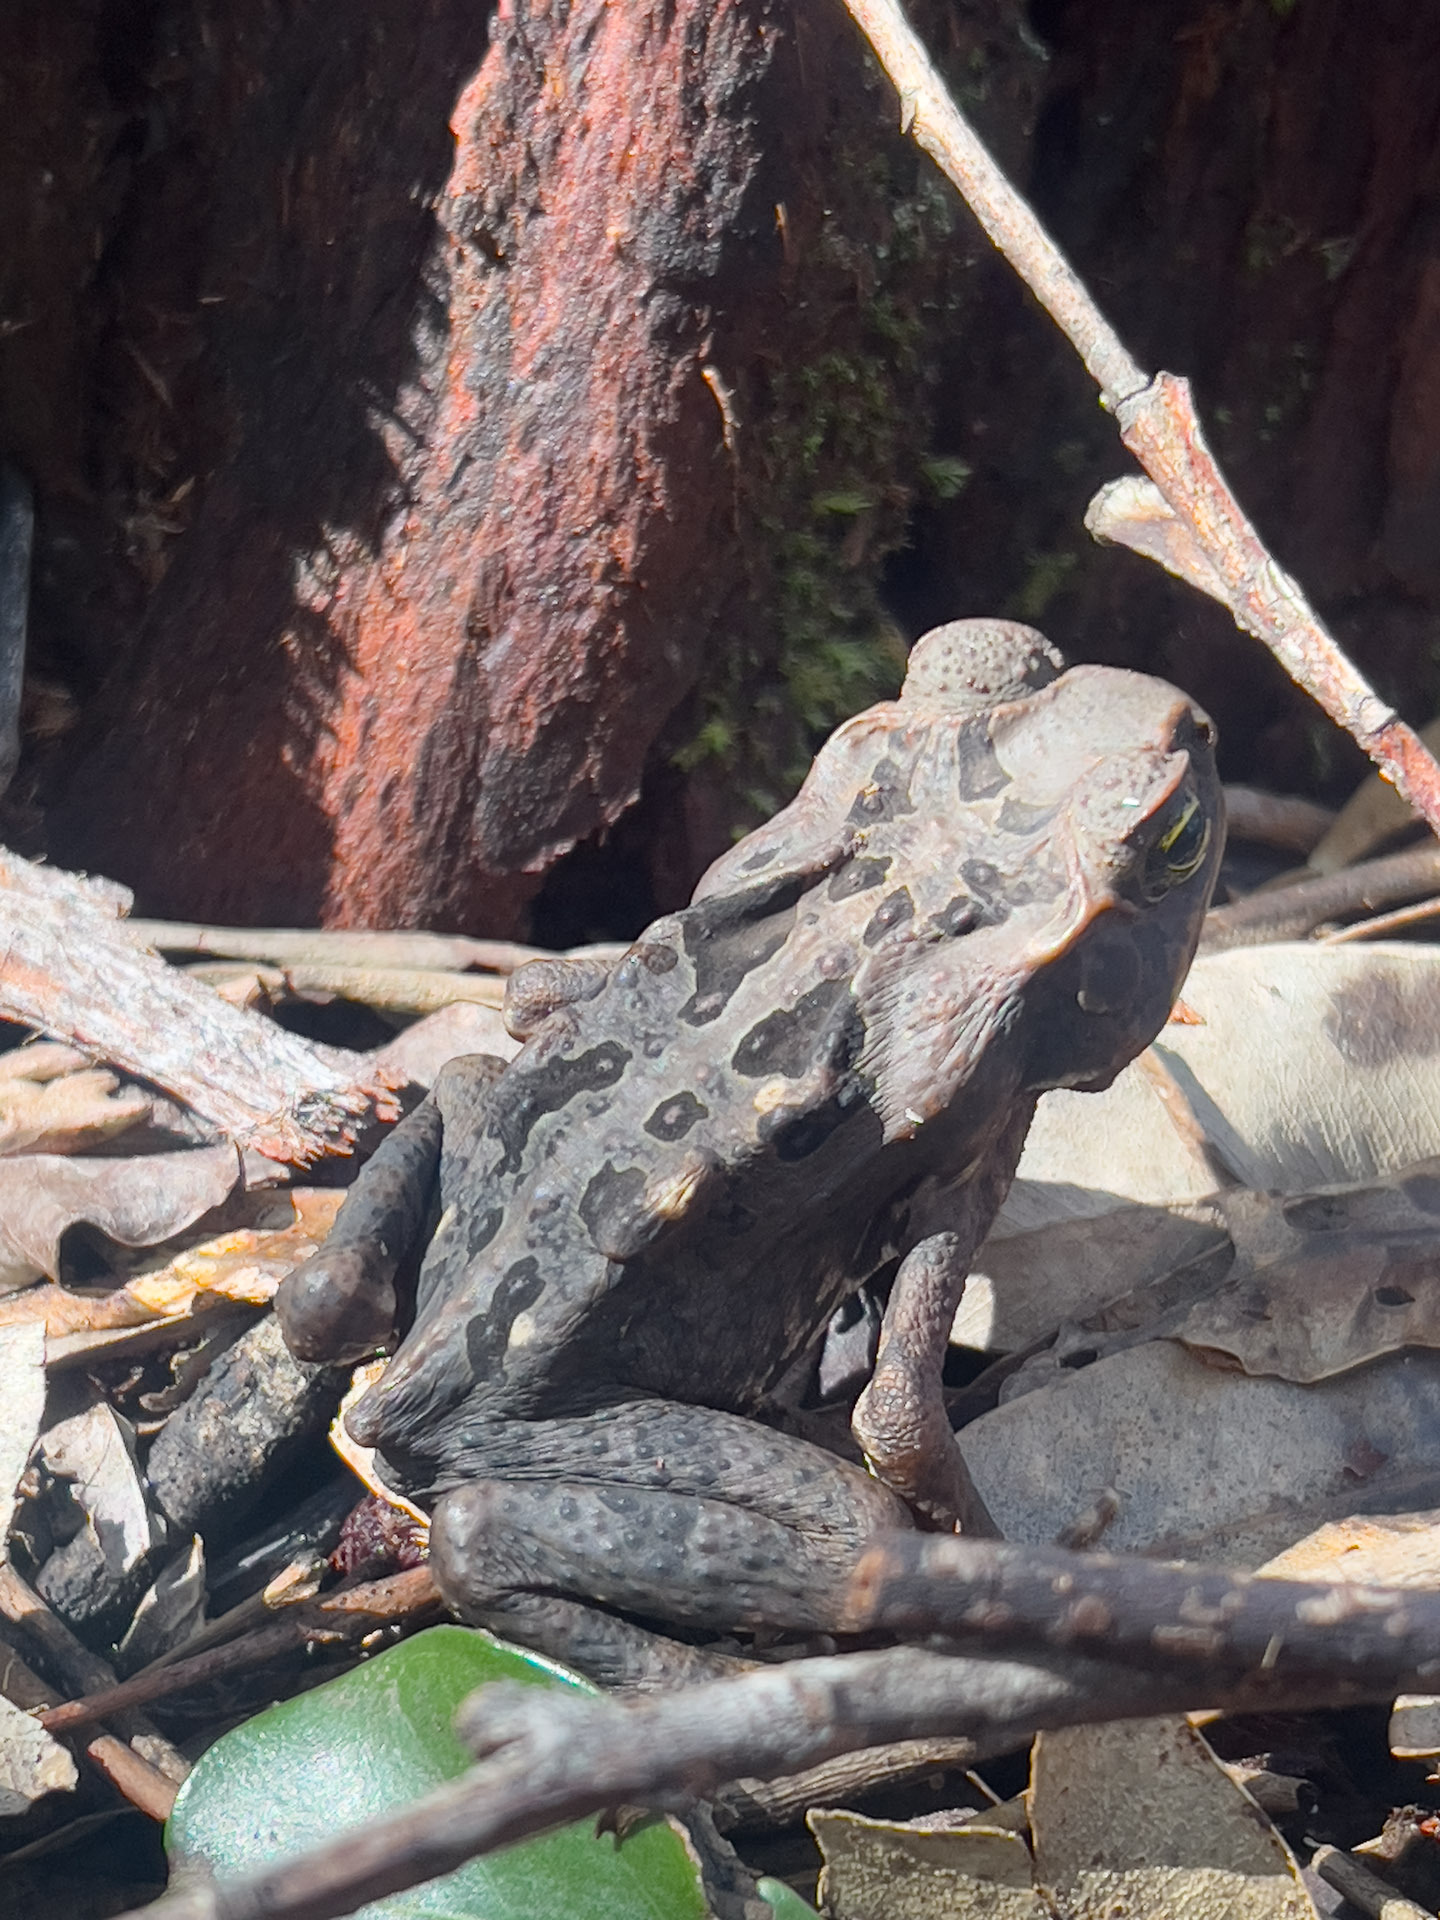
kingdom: Animalia
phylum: Chordata
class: Amphibia
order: Anura
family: Bufonidae
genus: Rhinella
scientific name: Rhinella marina
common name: Cane toad
